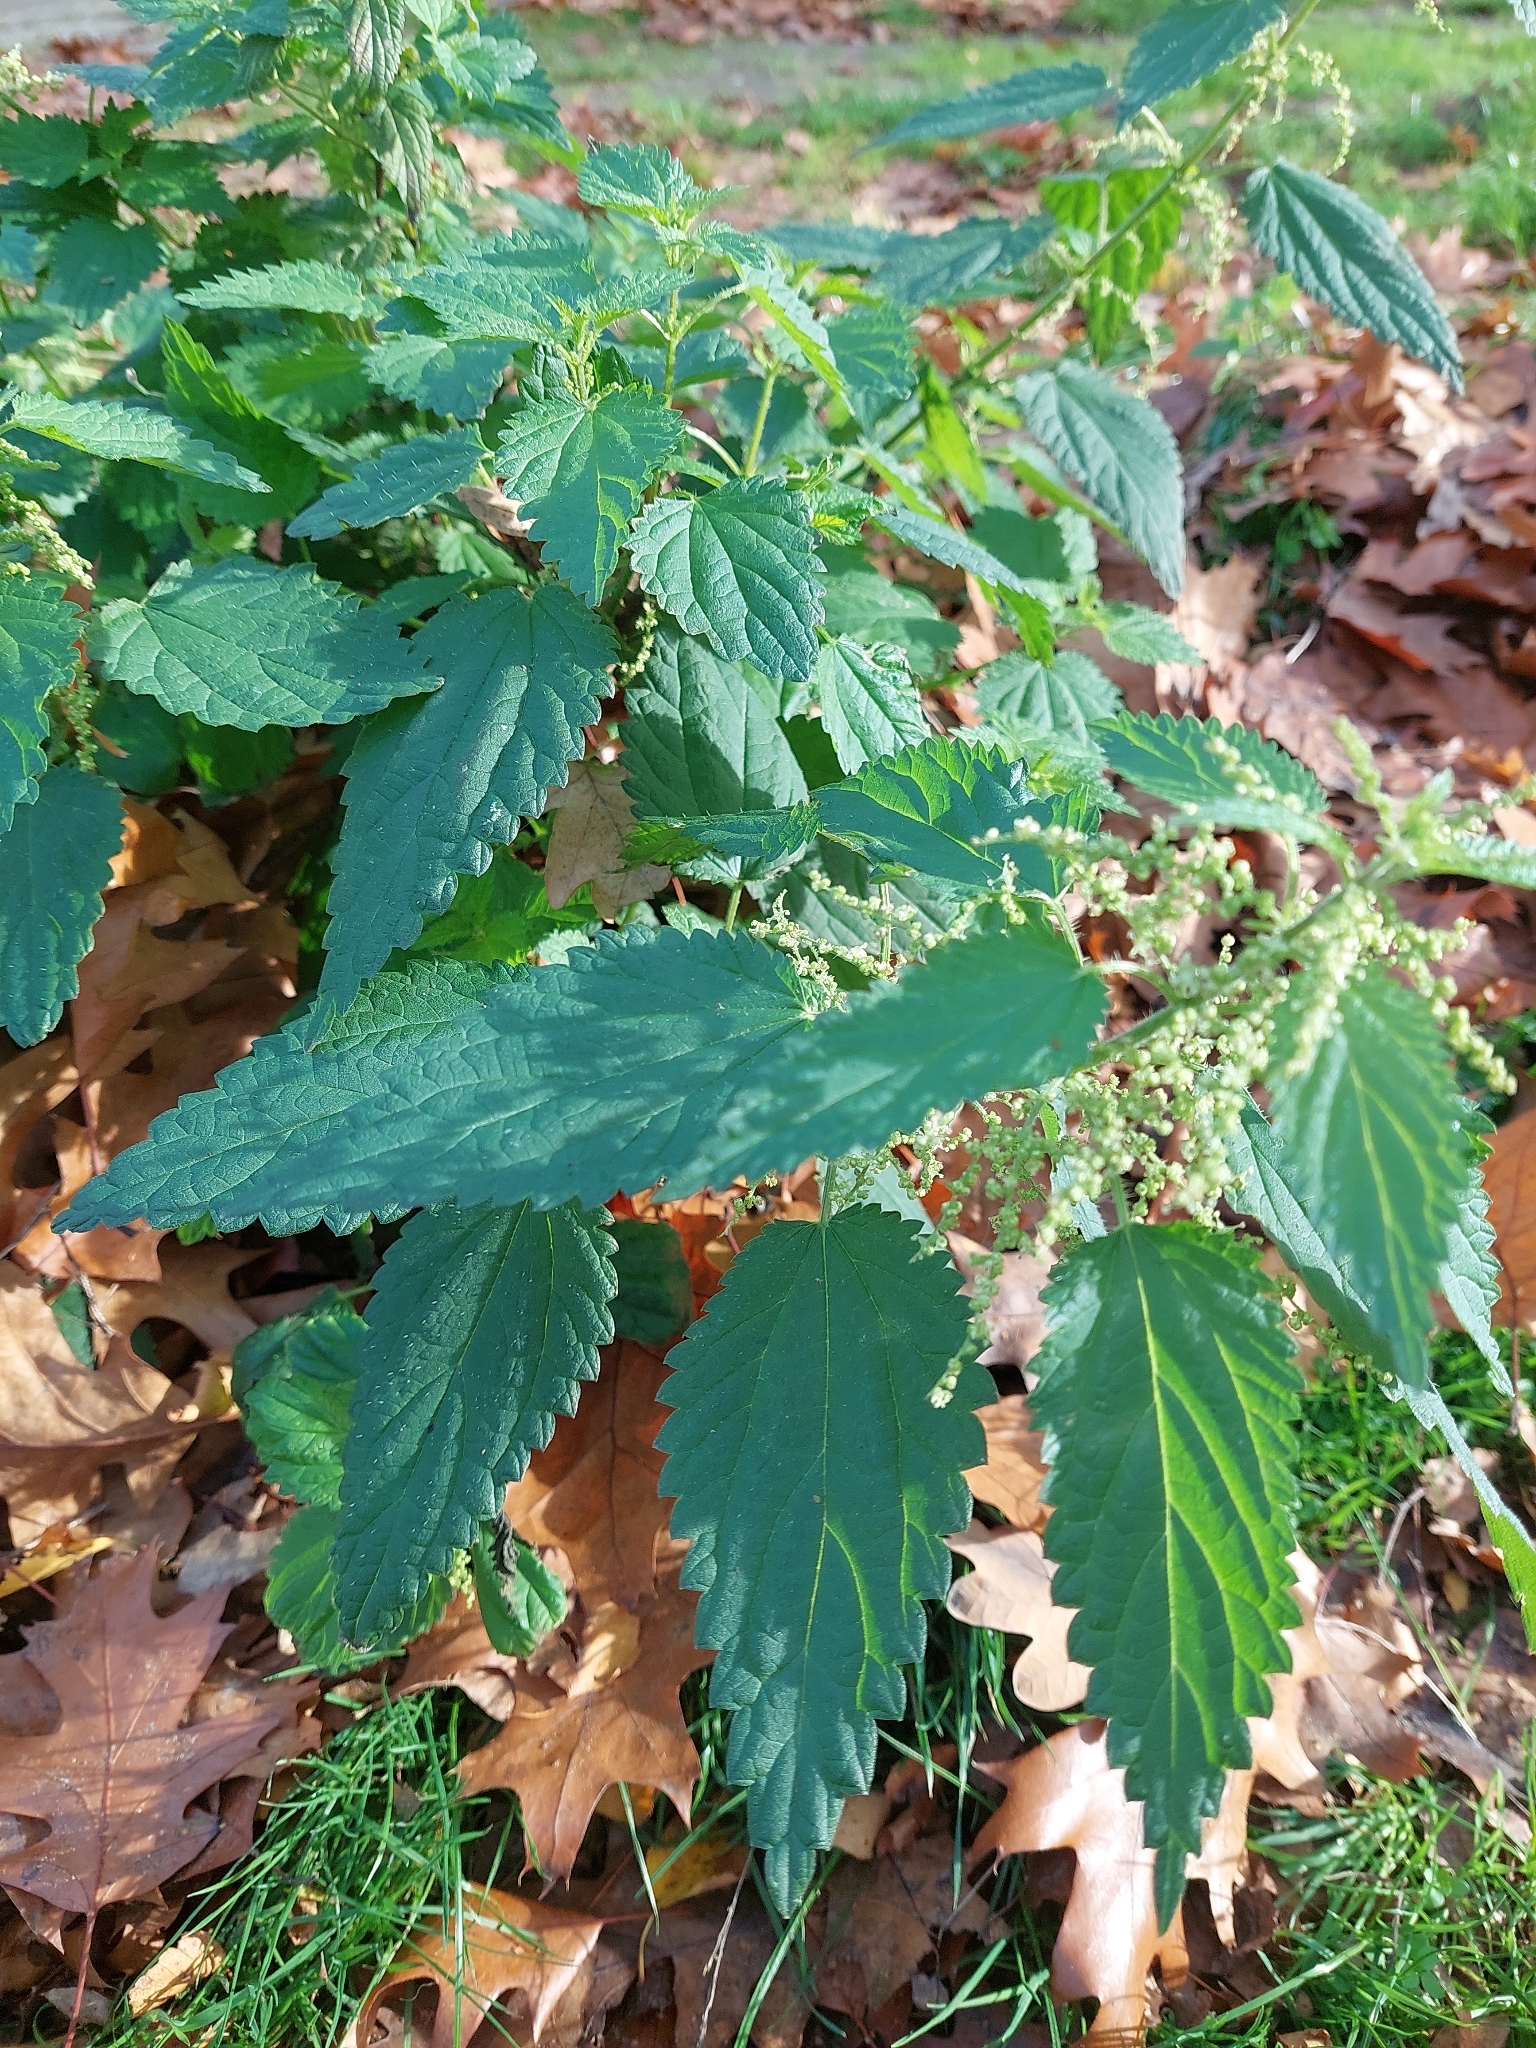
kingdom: Plantae
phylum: Tracheophyta
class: Magnoliopsida
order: Rosales
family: Urticaceae
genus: Urtica
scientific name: Urtica dioica
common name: Common nettle
